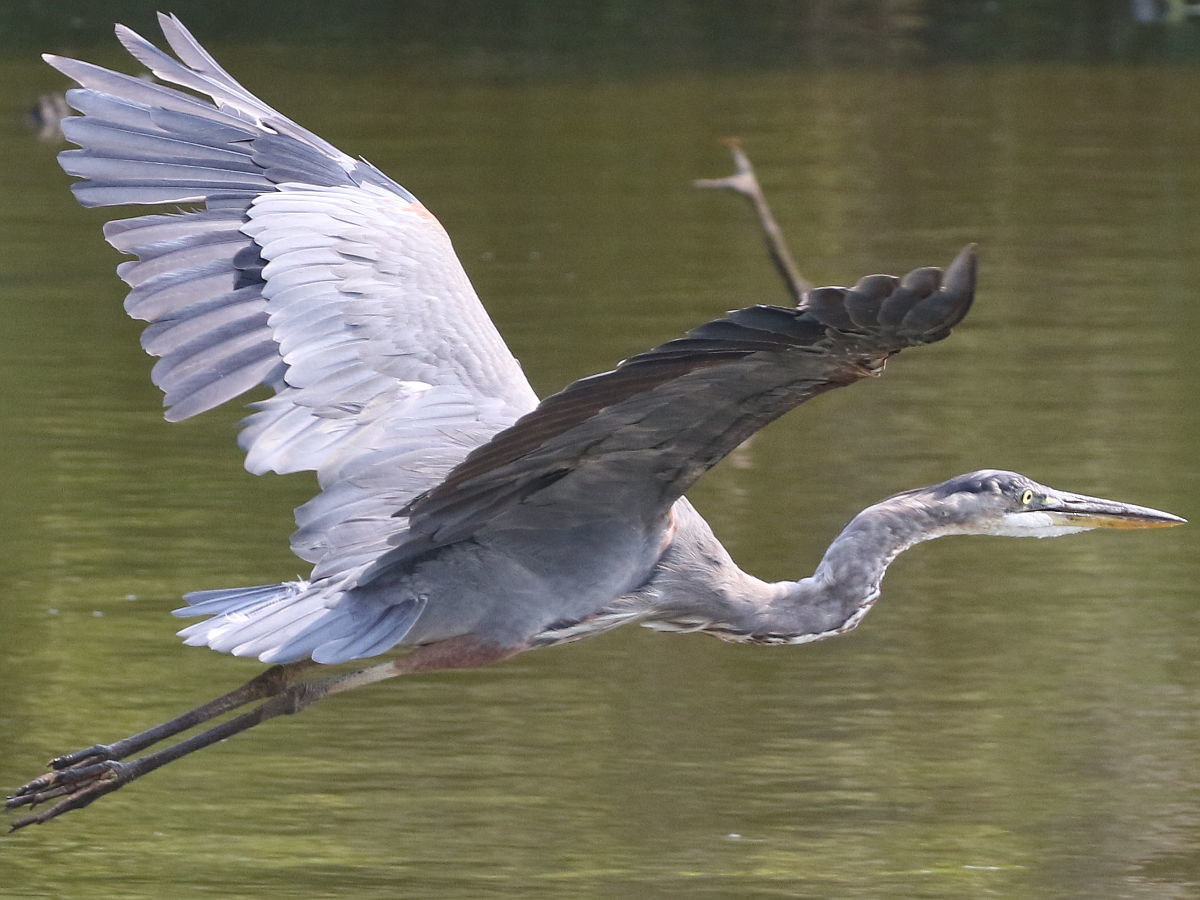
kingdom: Animalia
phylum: Chordata
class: Aves
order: Pelecaniformes
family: Ardeidae
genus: Ardea
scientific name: Ardea herodias
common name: Great blue heron
